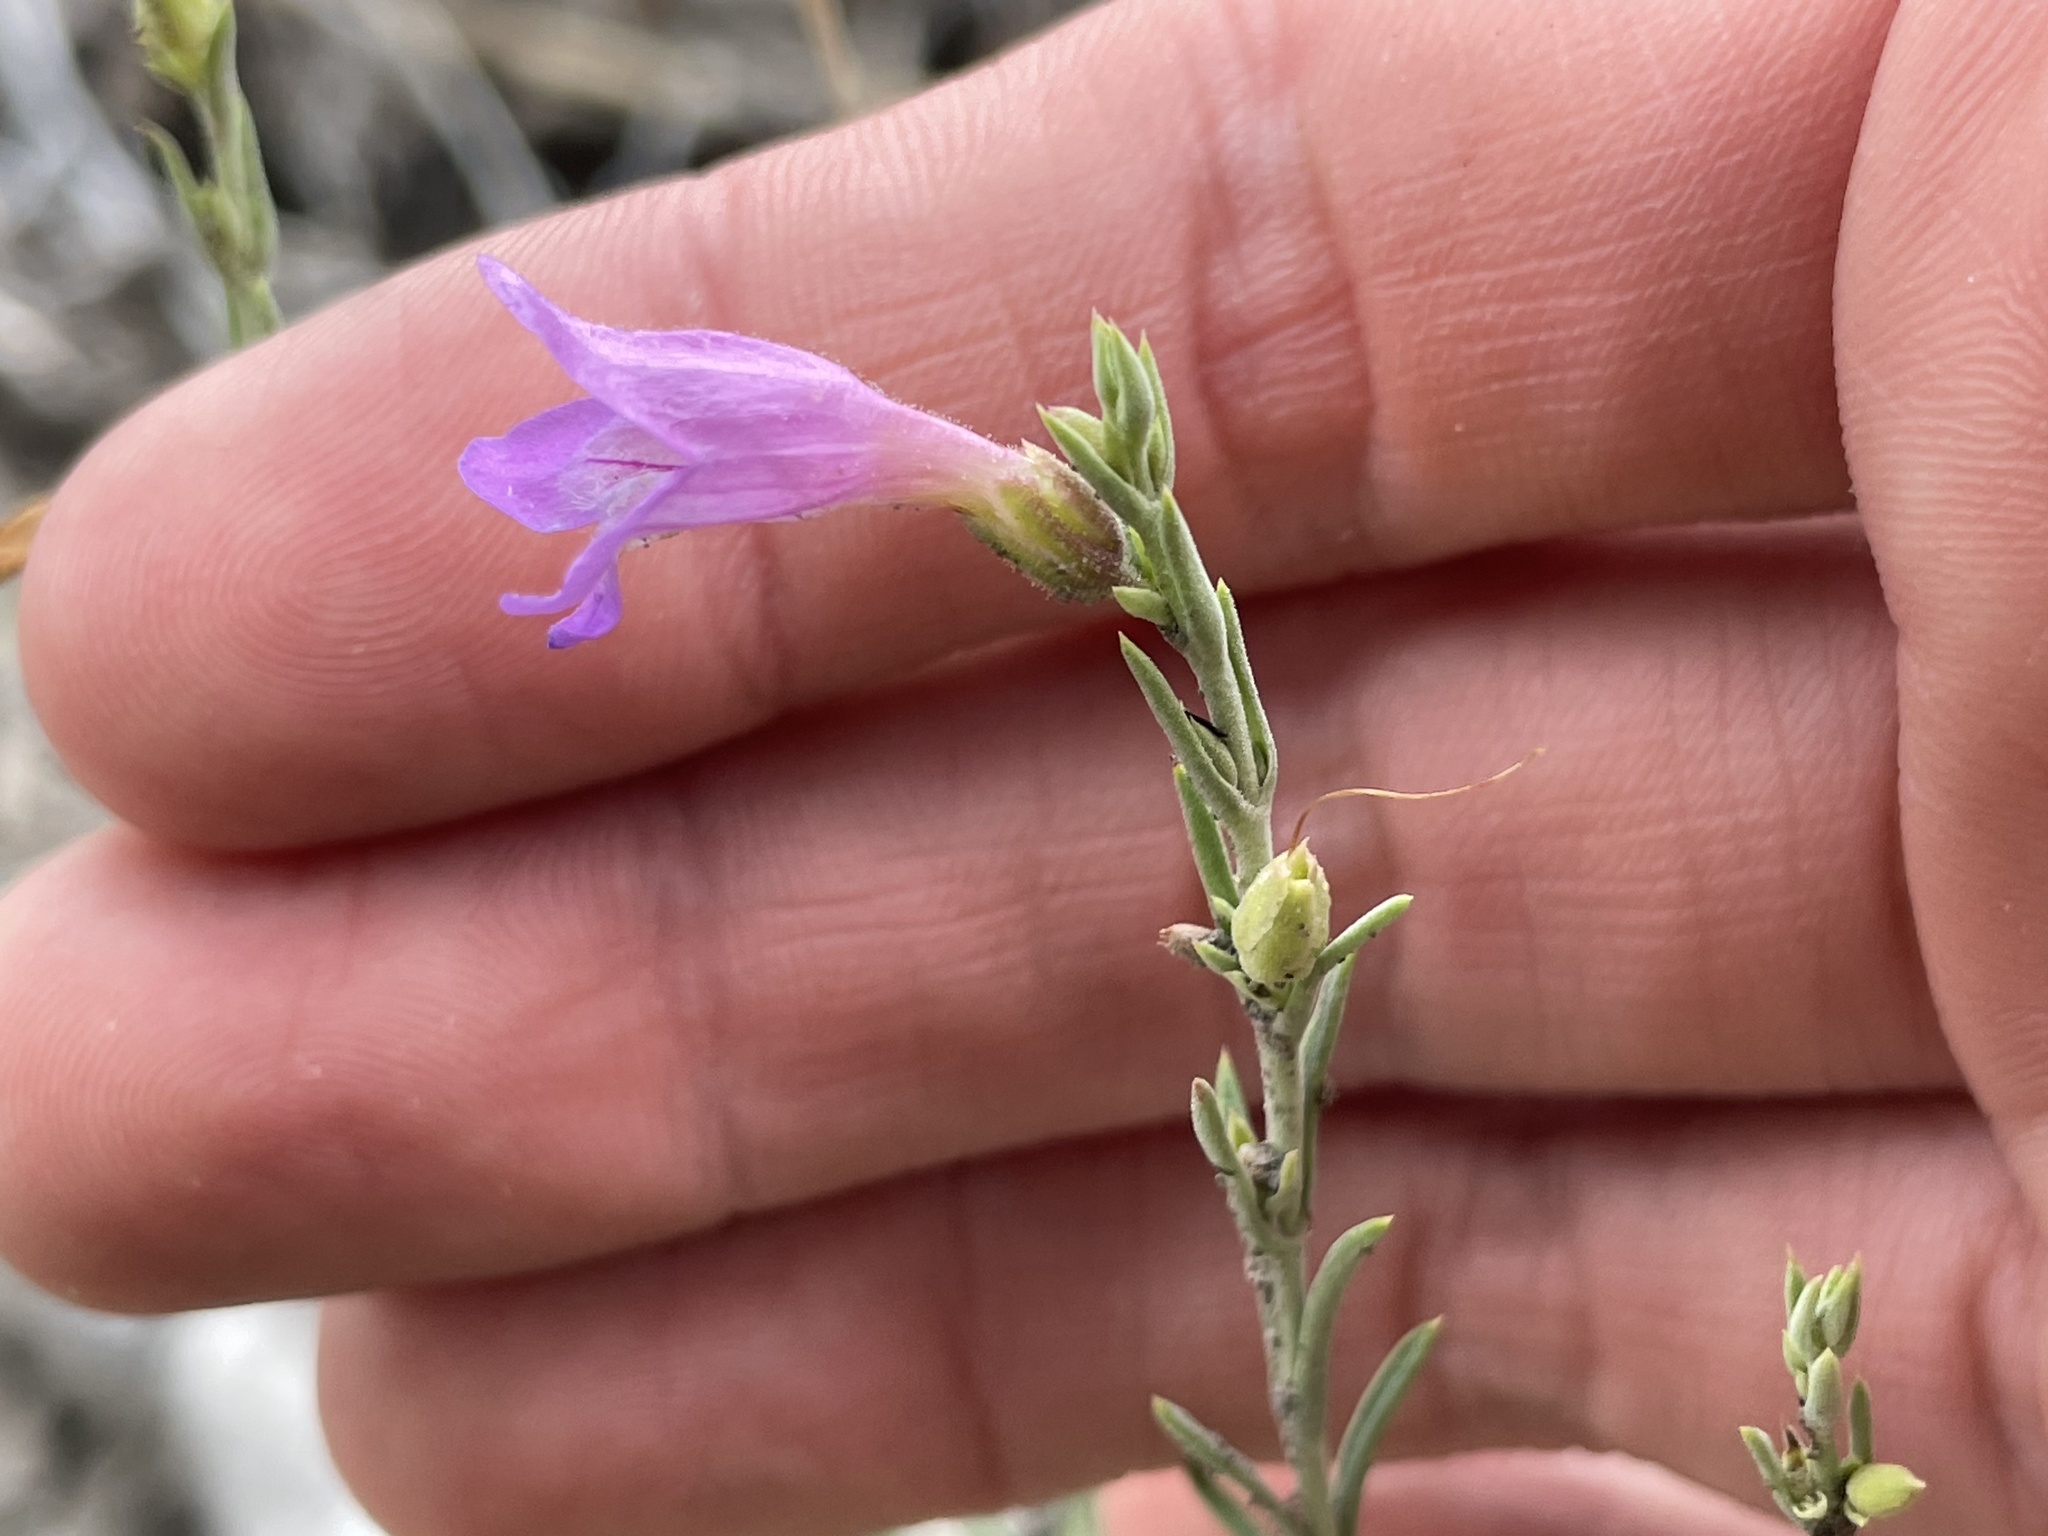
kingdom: Plantae
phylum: Tracheophyta
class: Magnoliopsida
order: Lamiales
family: Plantaginaceae
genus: Penstemon
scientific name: Penstemon linarioides
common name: Siler's penstemon
